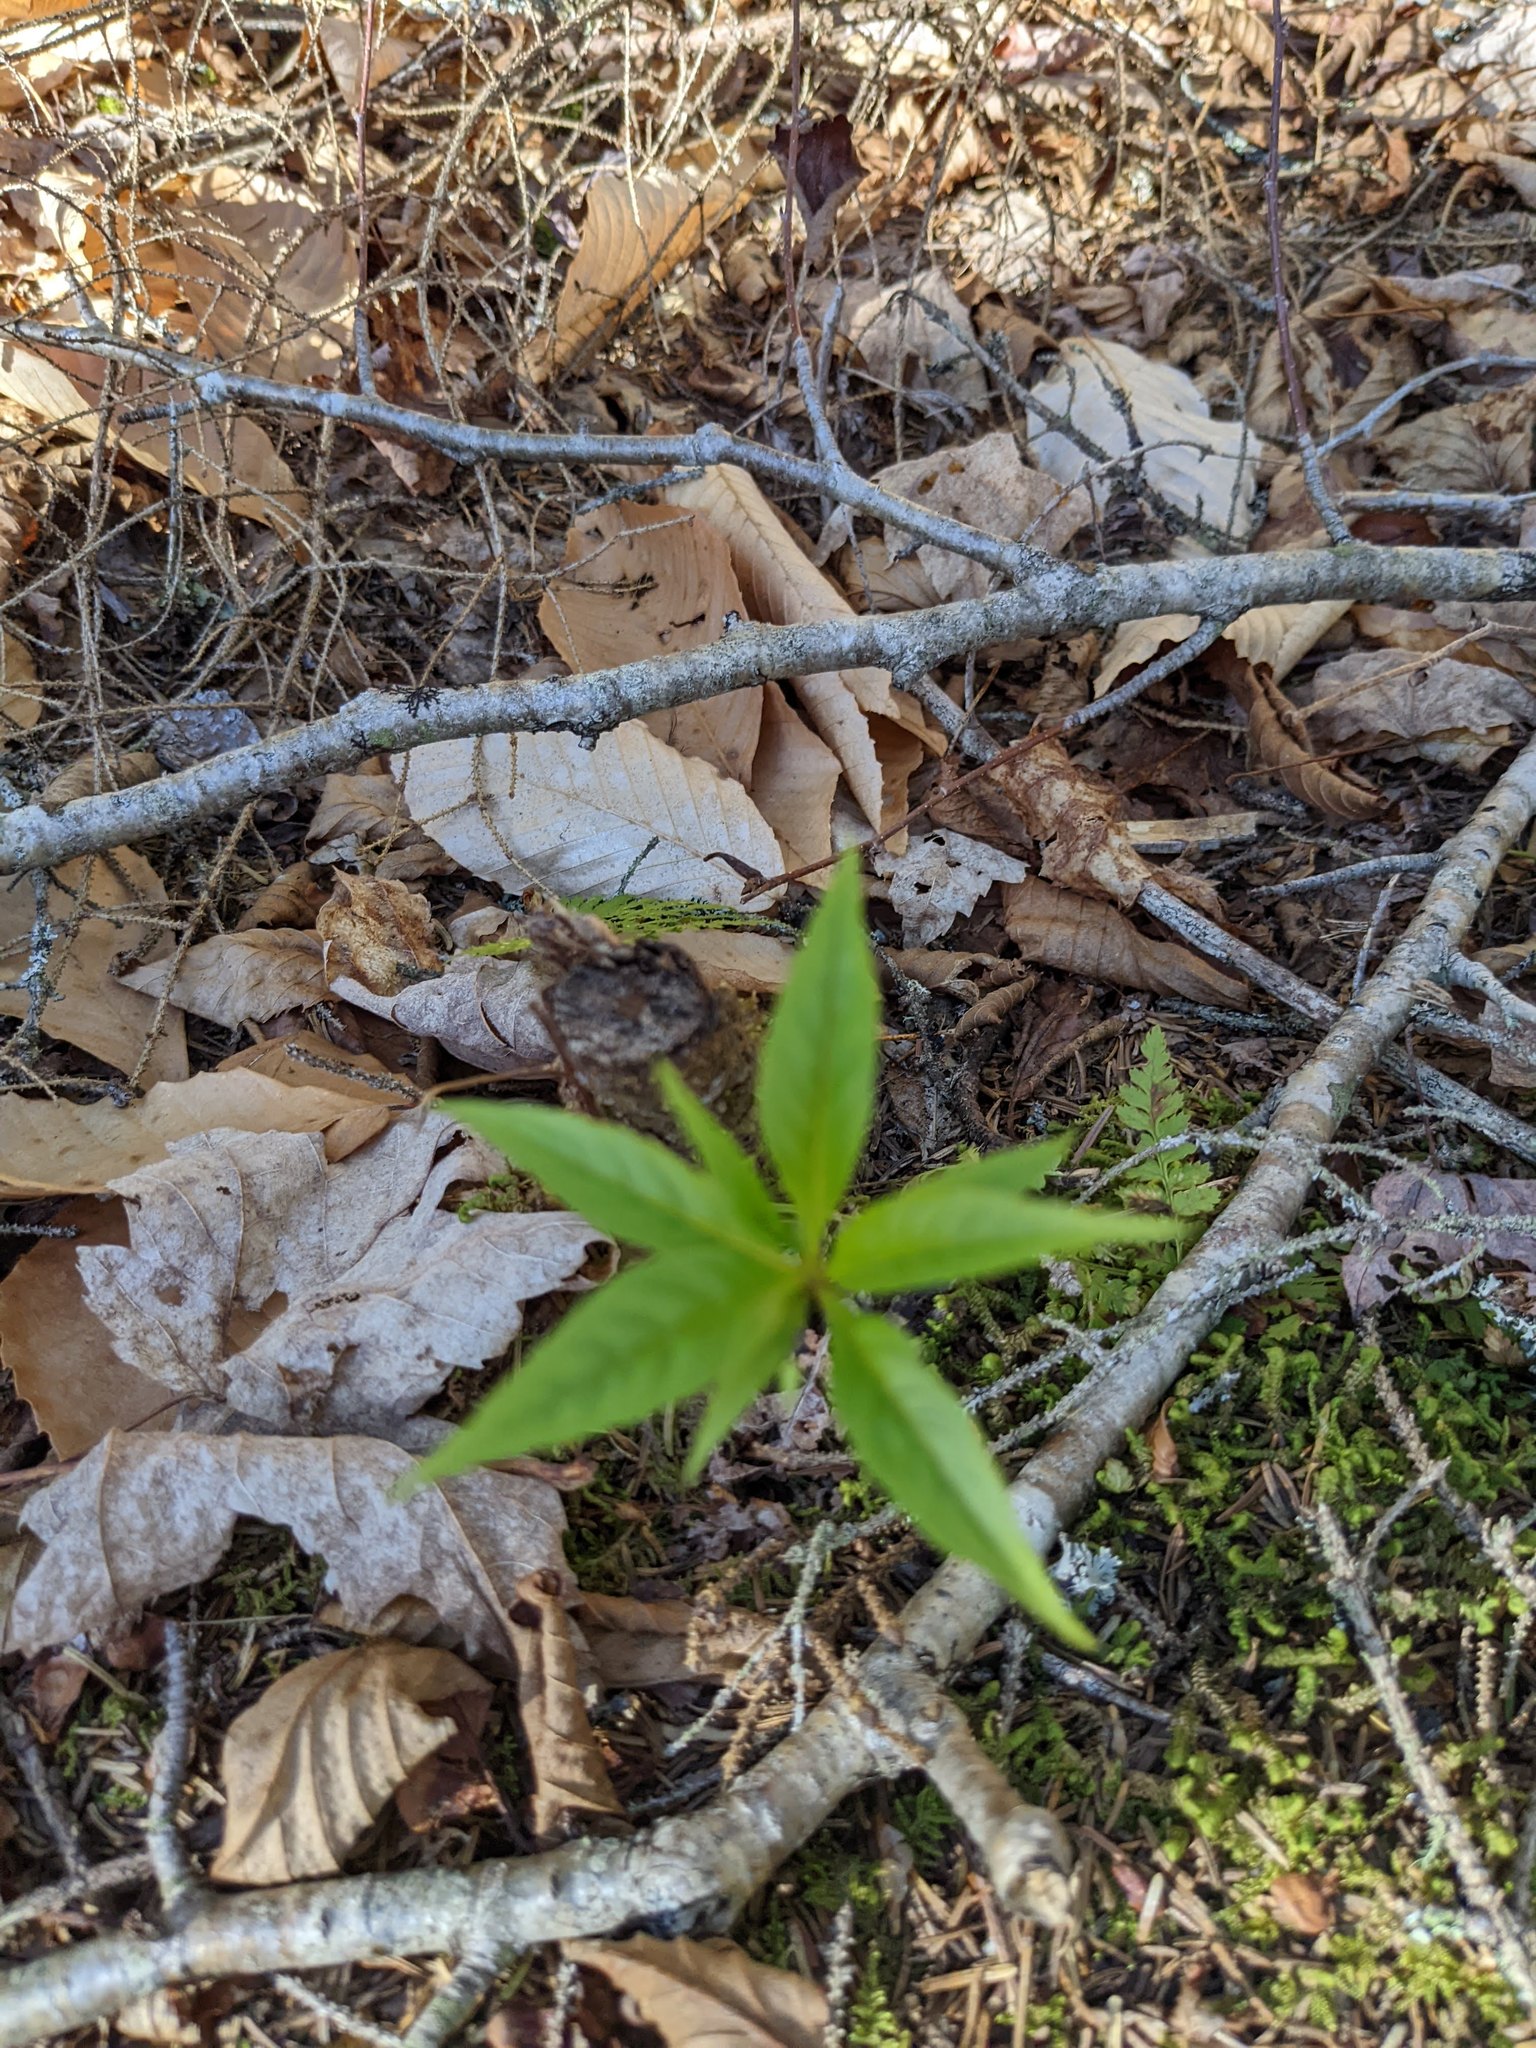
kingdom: Plantae
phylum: Tracheophyta
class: Magnoliopsida
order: Ericales
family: Primulaceae
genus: Lysimachia
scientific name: Lysimachia borealis
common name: American starflower
